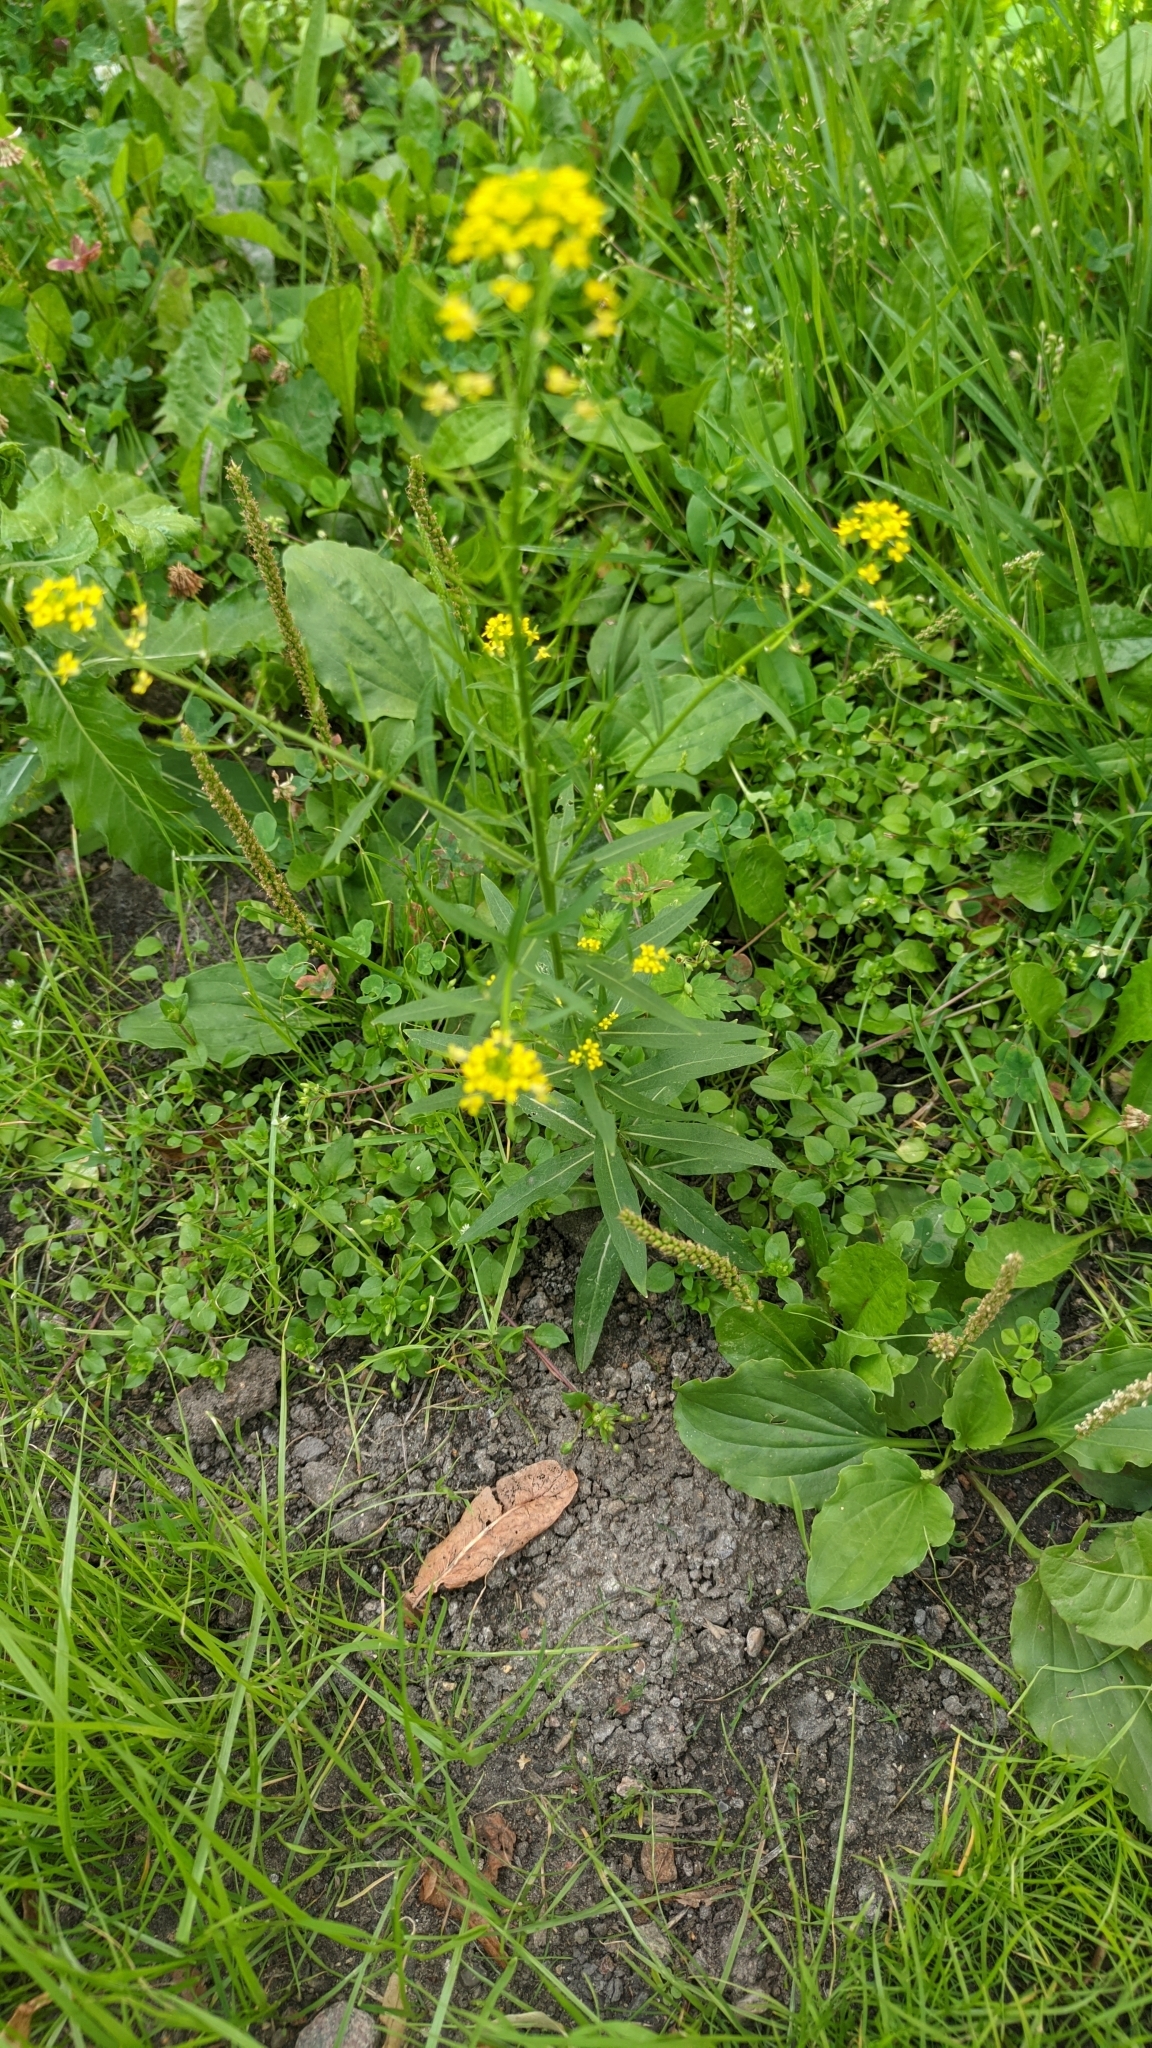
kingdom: Plantae
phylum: Tracheophyta
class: Magnoliopsida
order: Brassicales
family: Brassicaceae
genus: Erysimum
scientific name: Erysimum cheiranthoides
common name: Treacle mustard
